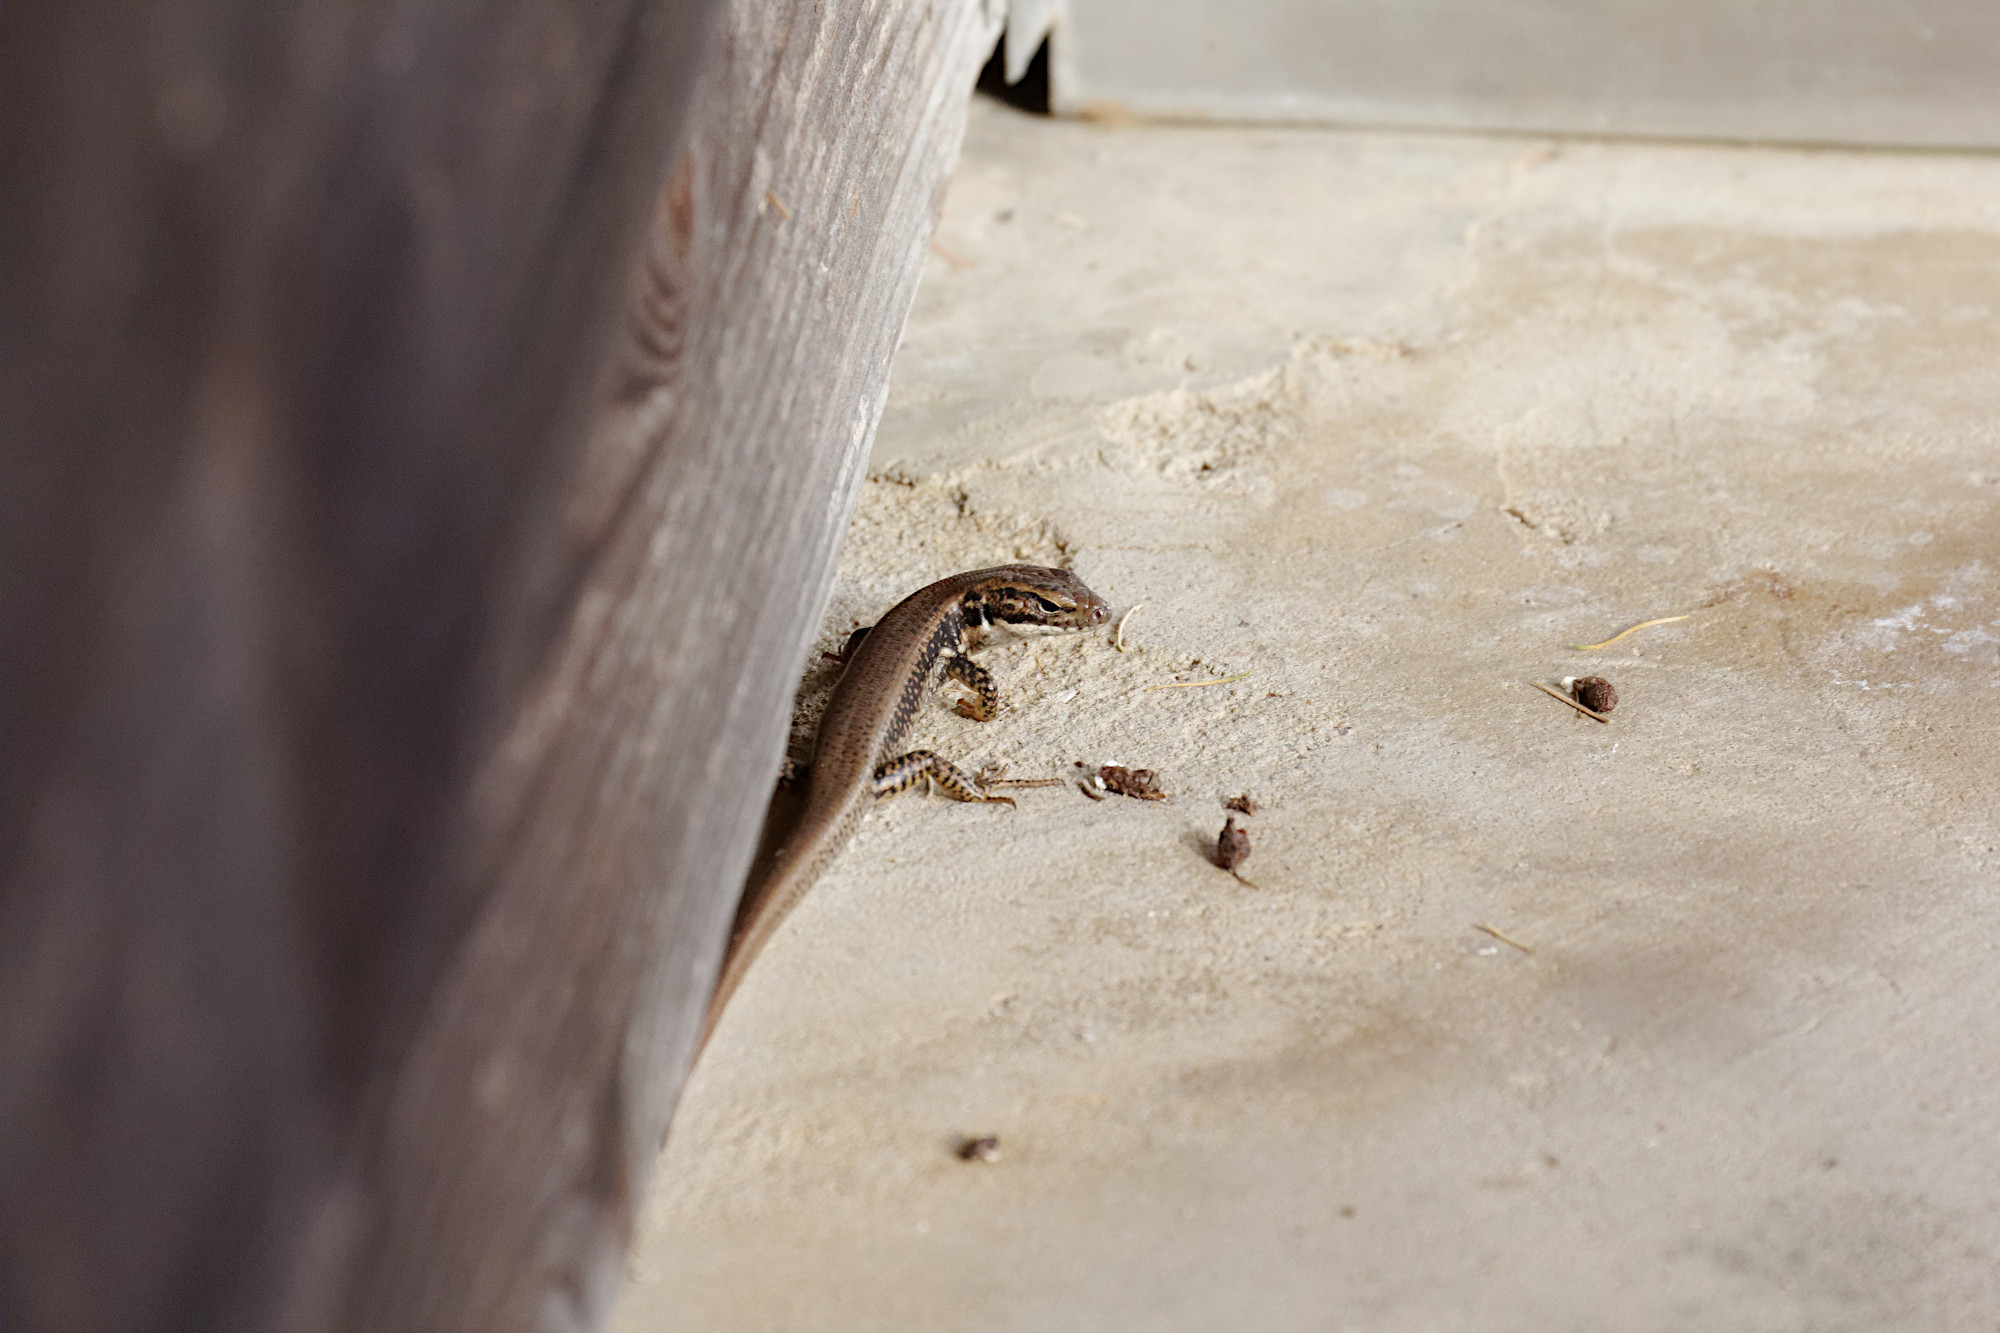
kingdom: Animalia
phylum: Chordata
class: Squamata
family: Scincidae
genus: Eulamprus
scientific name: Eulamprus heatwolei
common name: Warm-temperate water-skink
